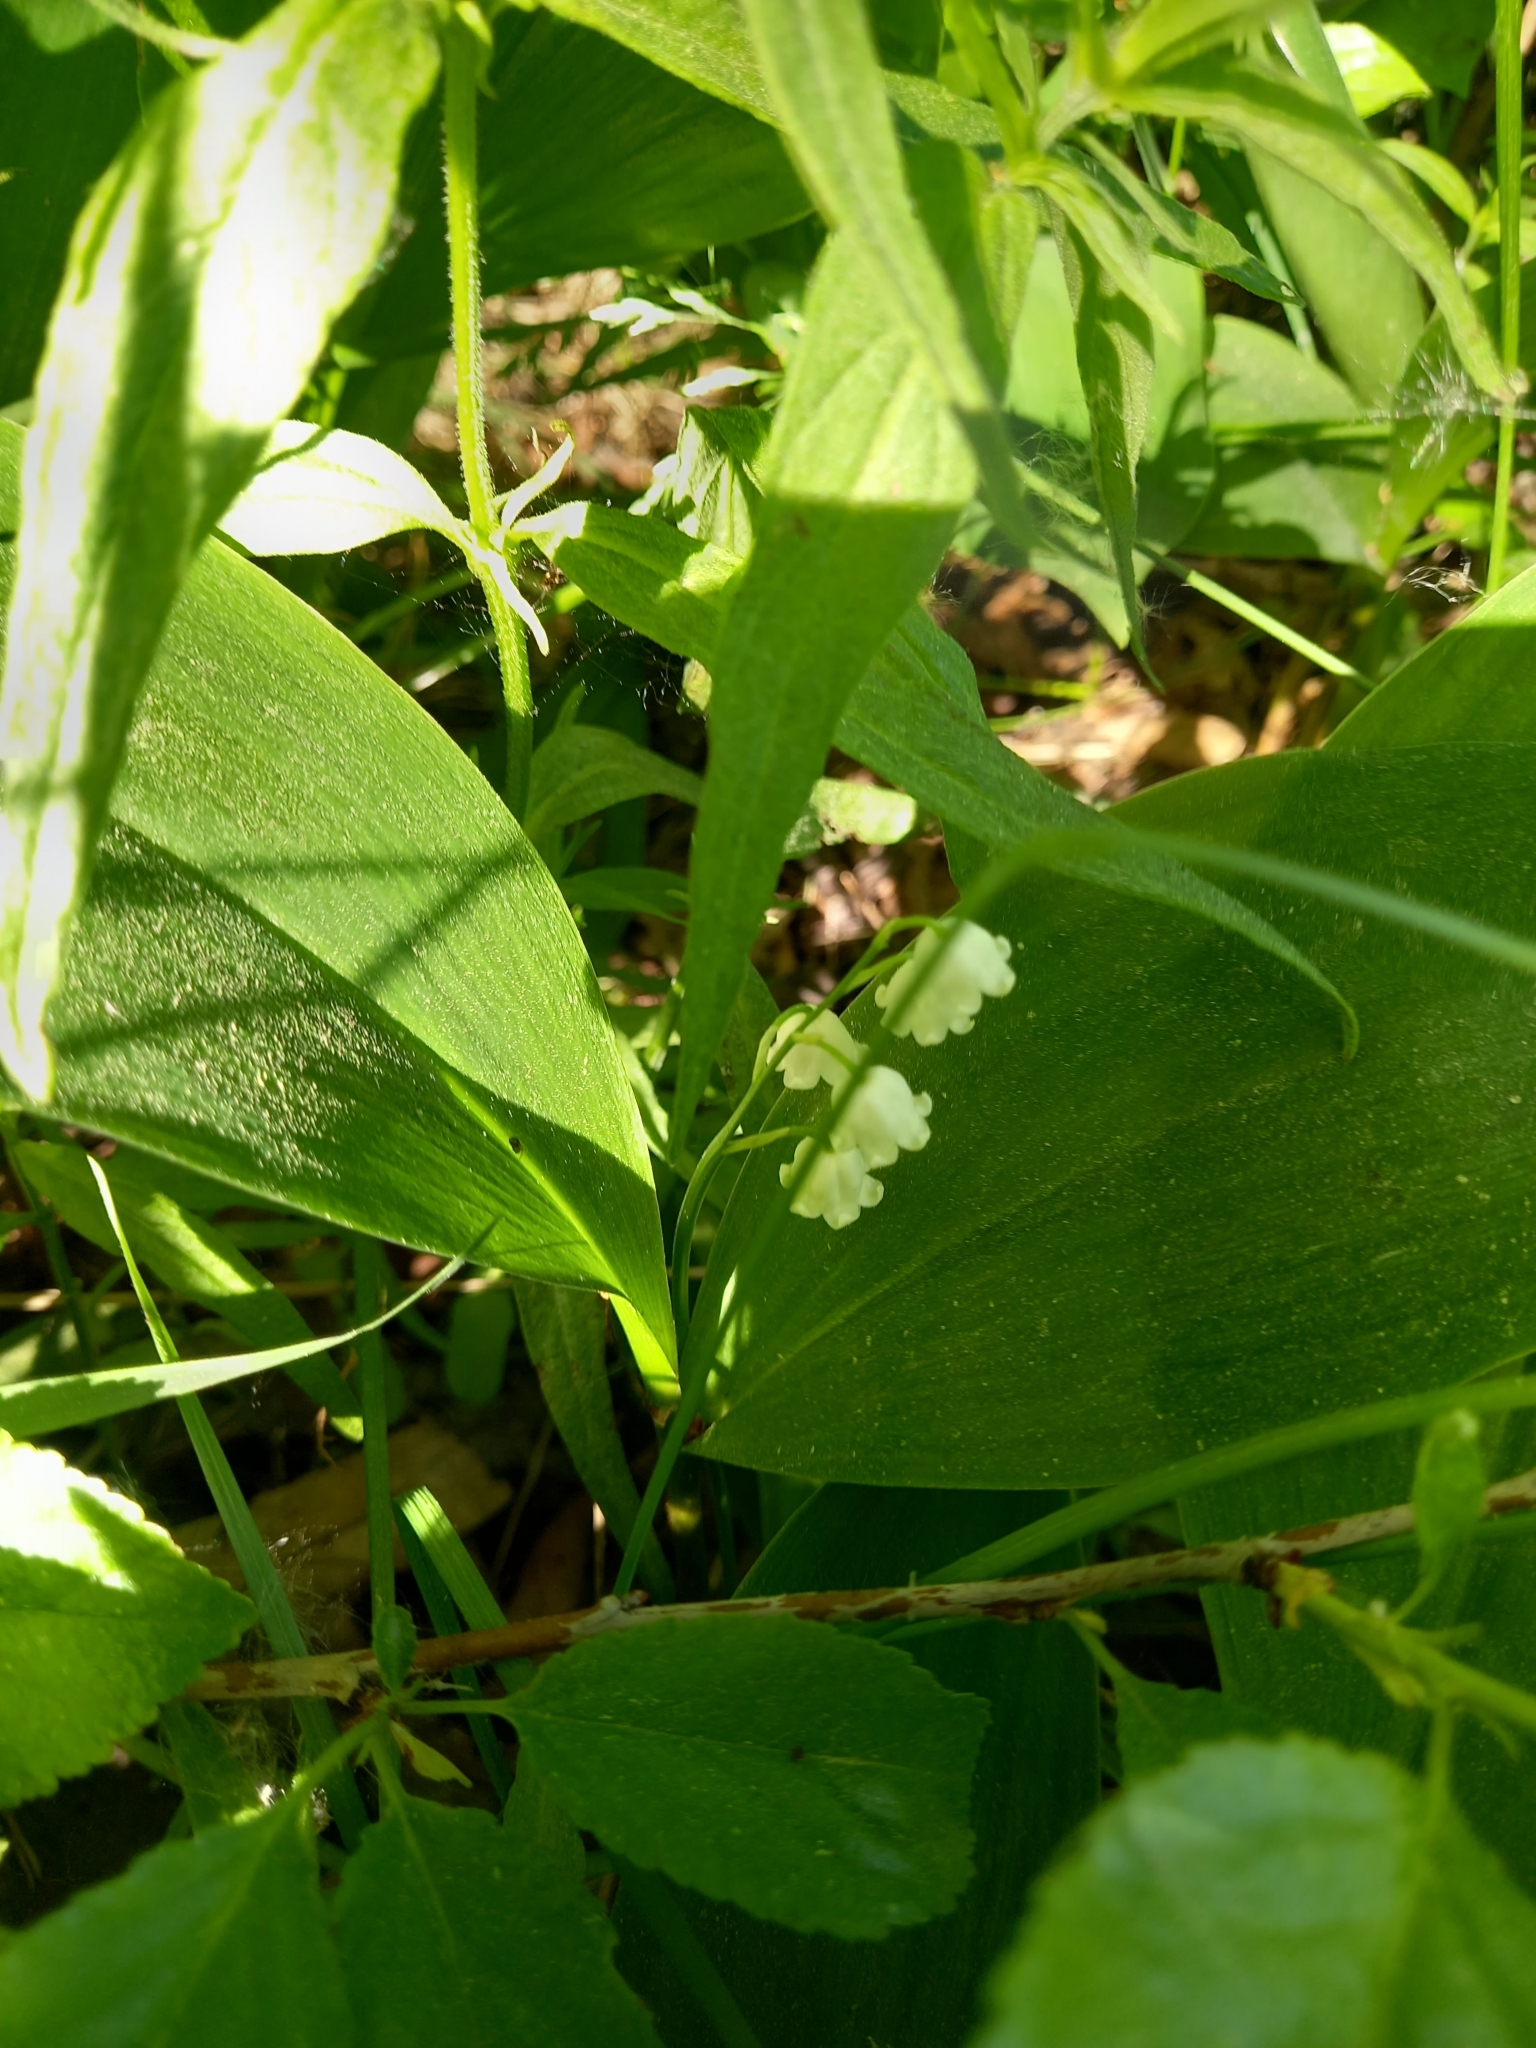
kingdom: Plantae
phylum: Tracheophyta
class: Liliopsida
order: Asparagales
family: Asparagaceae
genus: Convallaria
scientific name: Convallaria majalis
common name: Lily-of-the-valley
